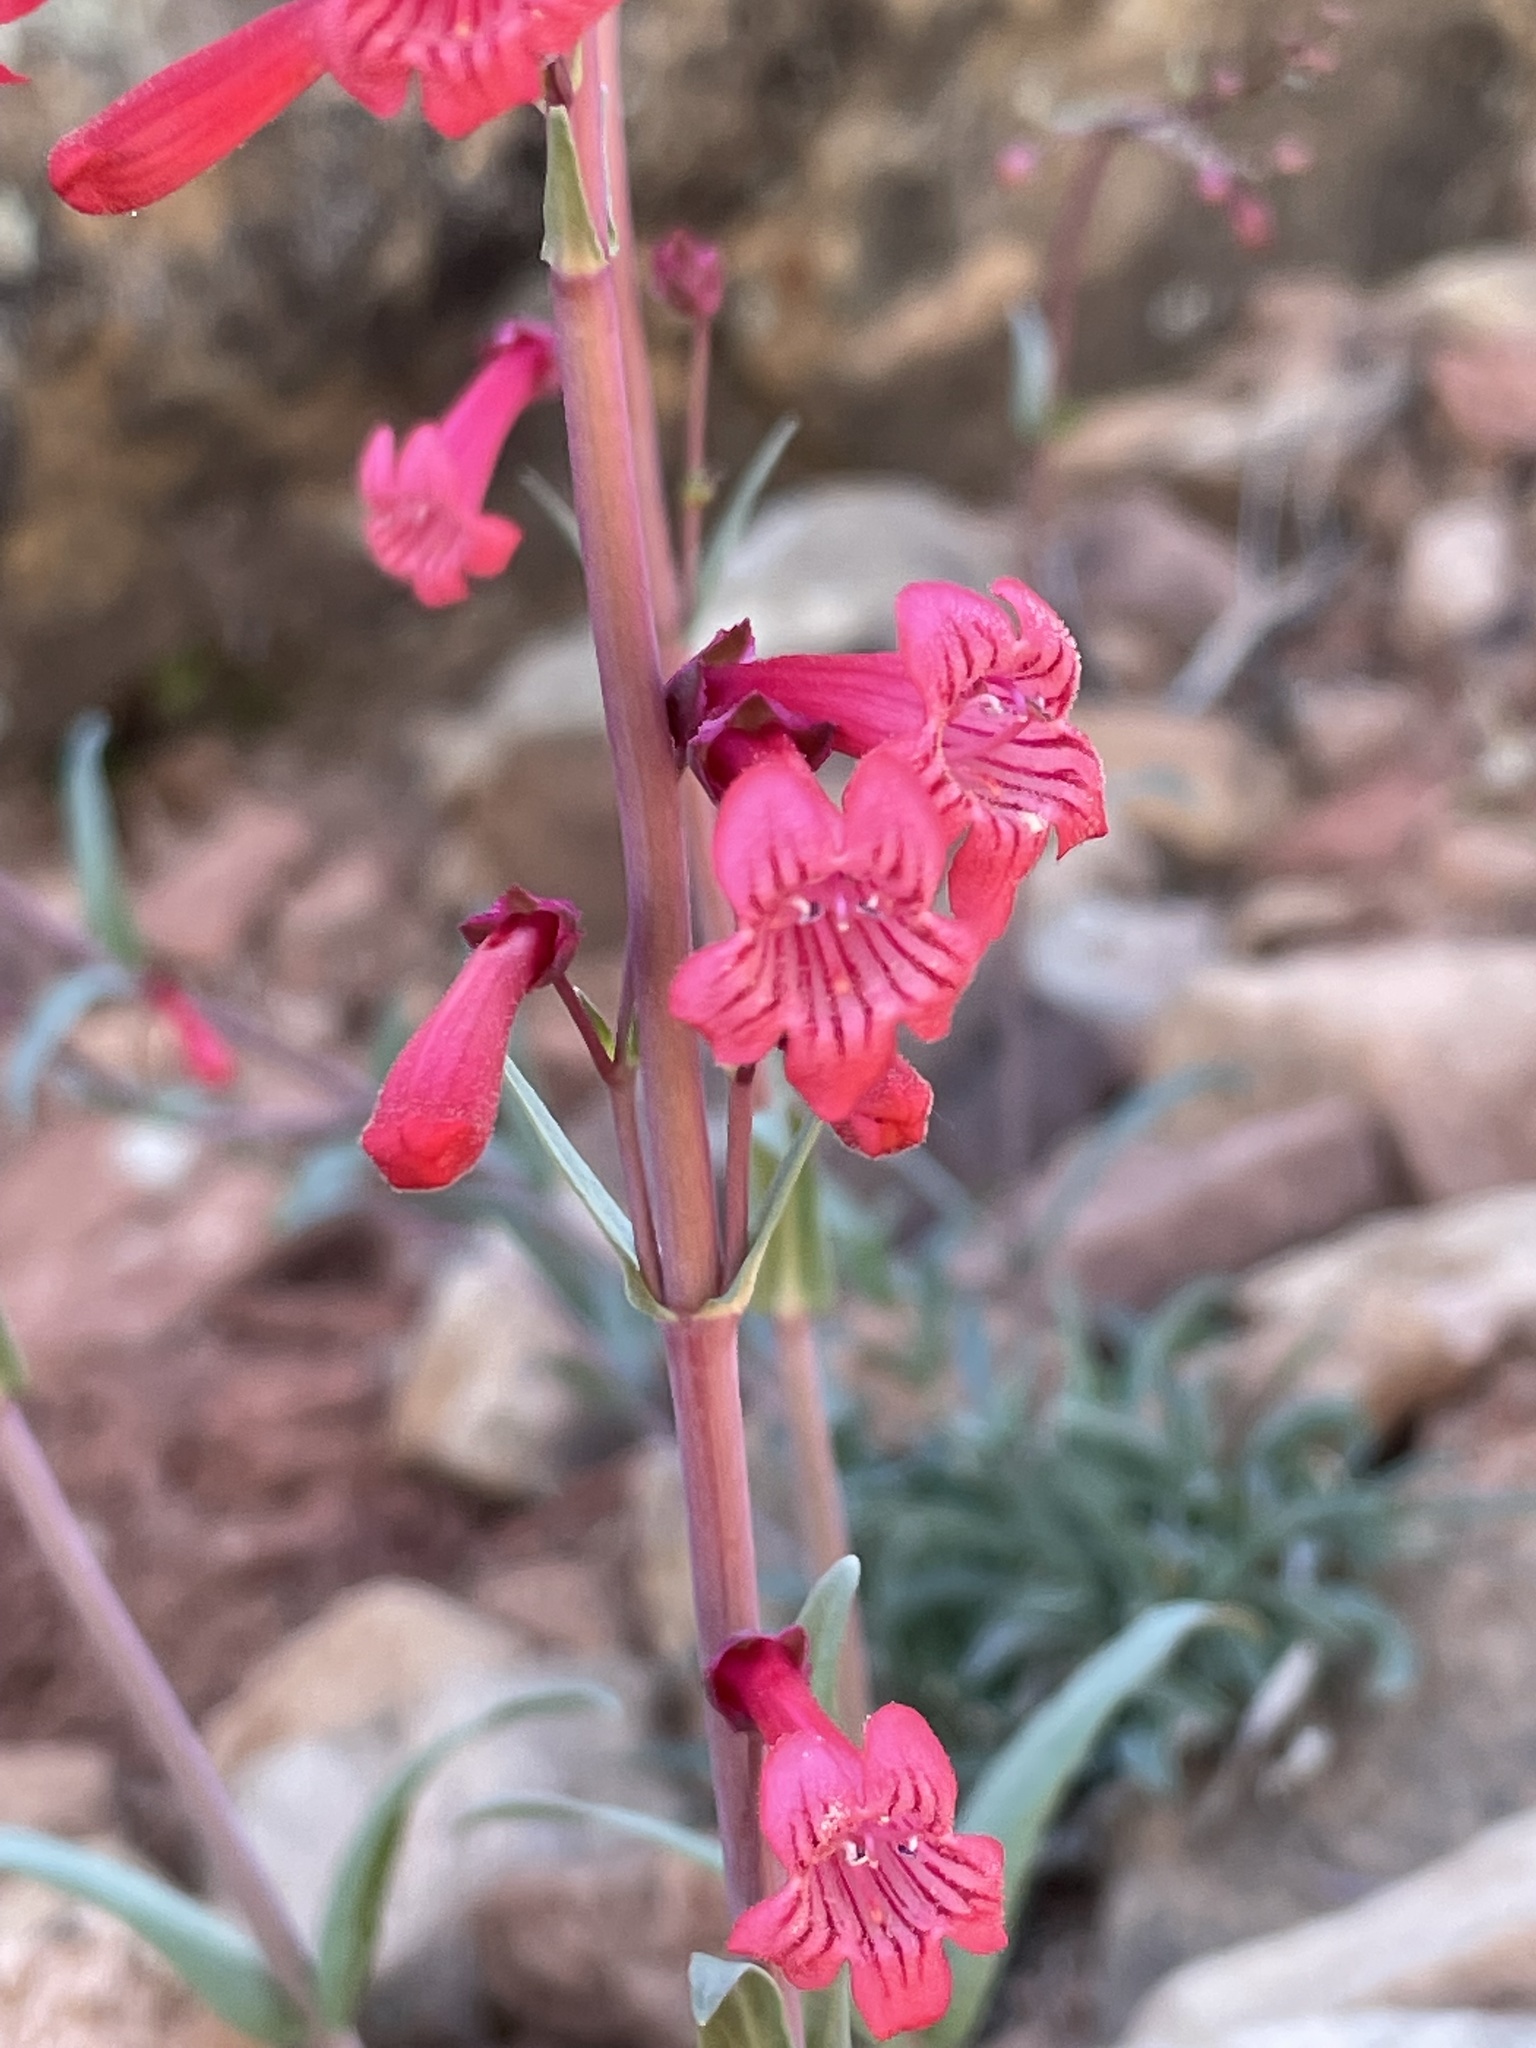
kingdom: Plantae
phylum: Tracheophyta
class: Magnoliopsida
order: Lamiales
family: Plantaginaceae
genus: Penstemon
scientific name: Penstemon utahensis
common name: Utah penstemon
